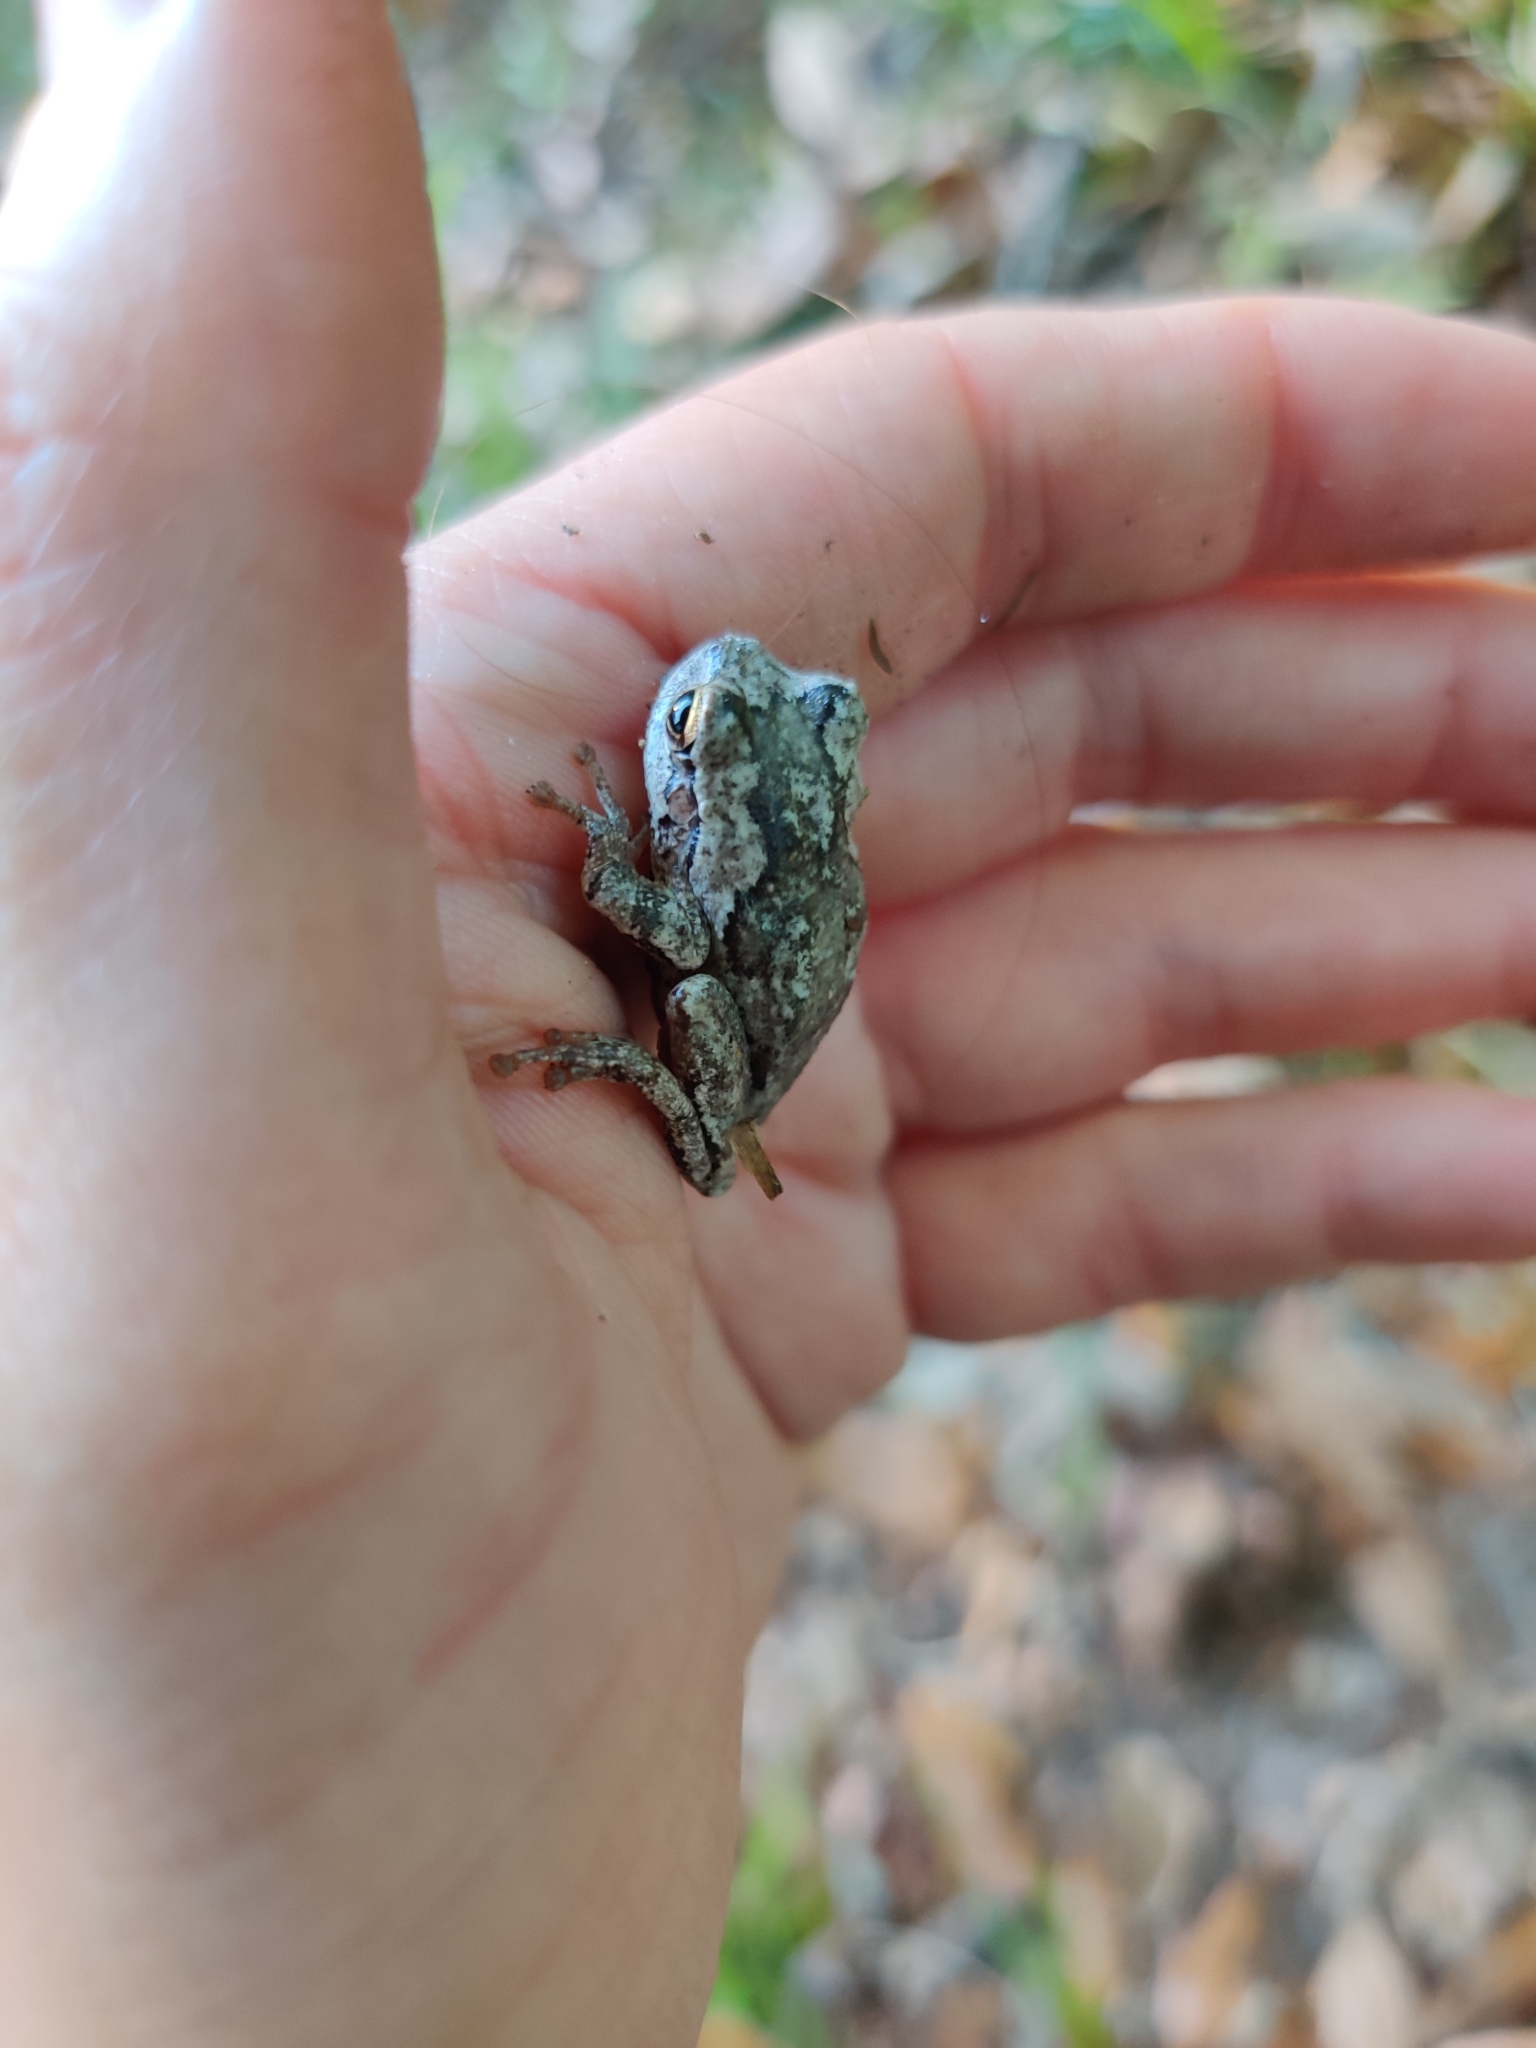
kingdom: Animalia
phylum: Chordata
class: Amphibia
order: Anura
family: Hylidae
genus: Hyla
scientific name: Hyla femoralis
